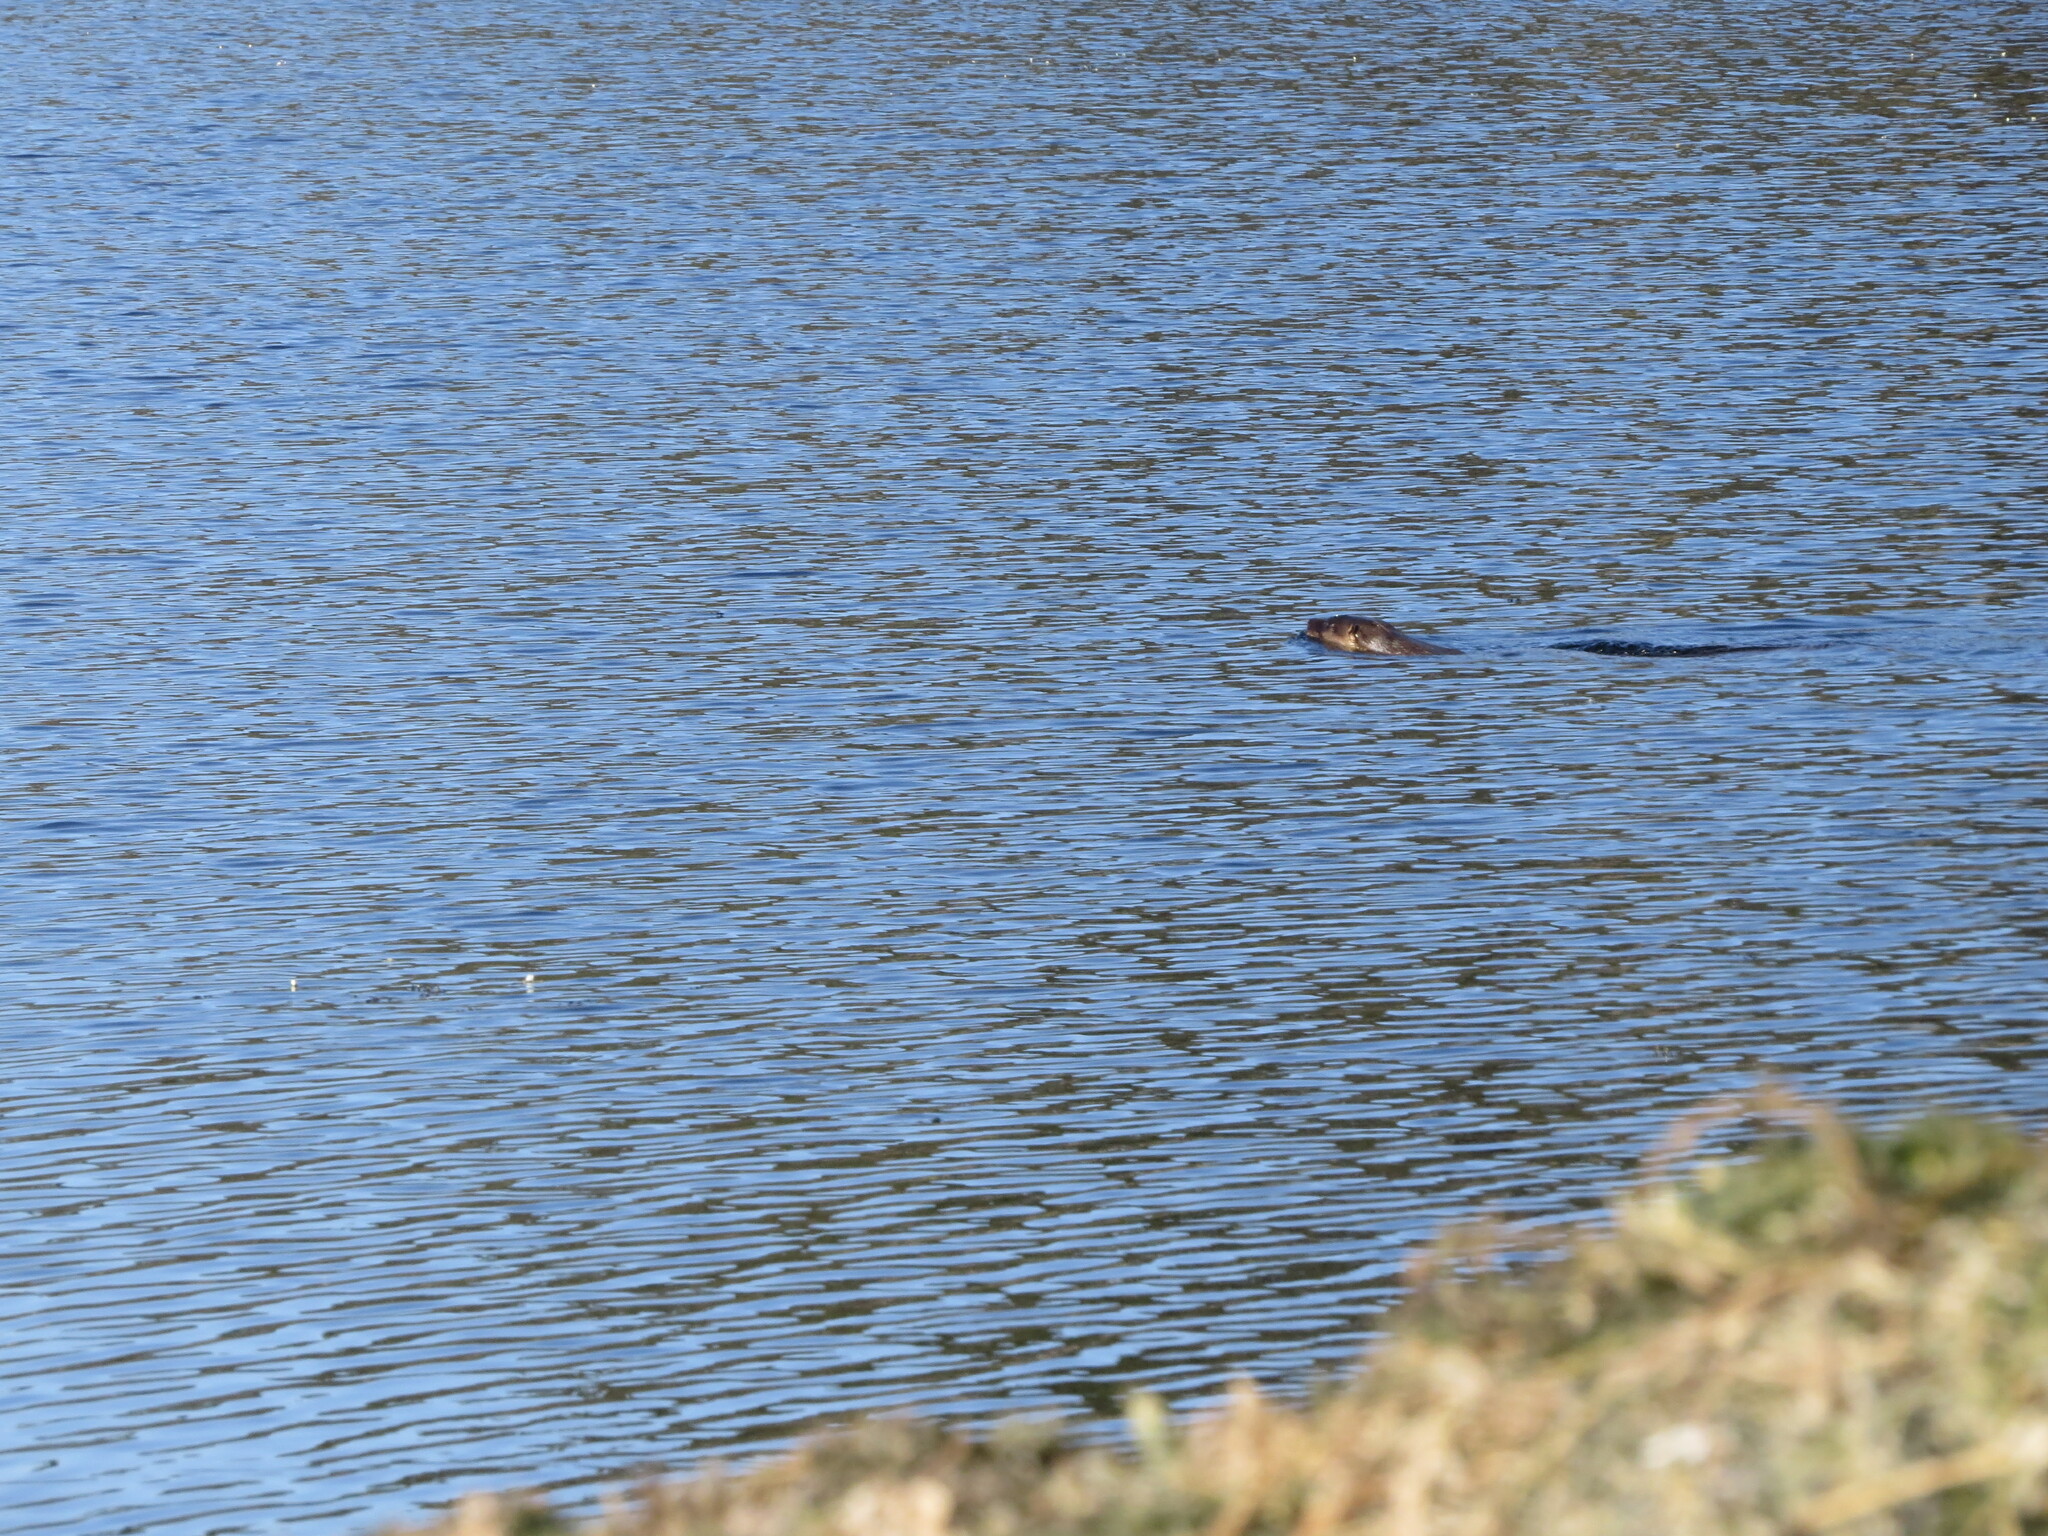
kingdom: Animalia
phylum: Chordata
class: Mammalia
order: Carnivora
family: Mustelidae
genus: Lontra
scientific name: Lontra longicaudis
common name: Neotropical otter
